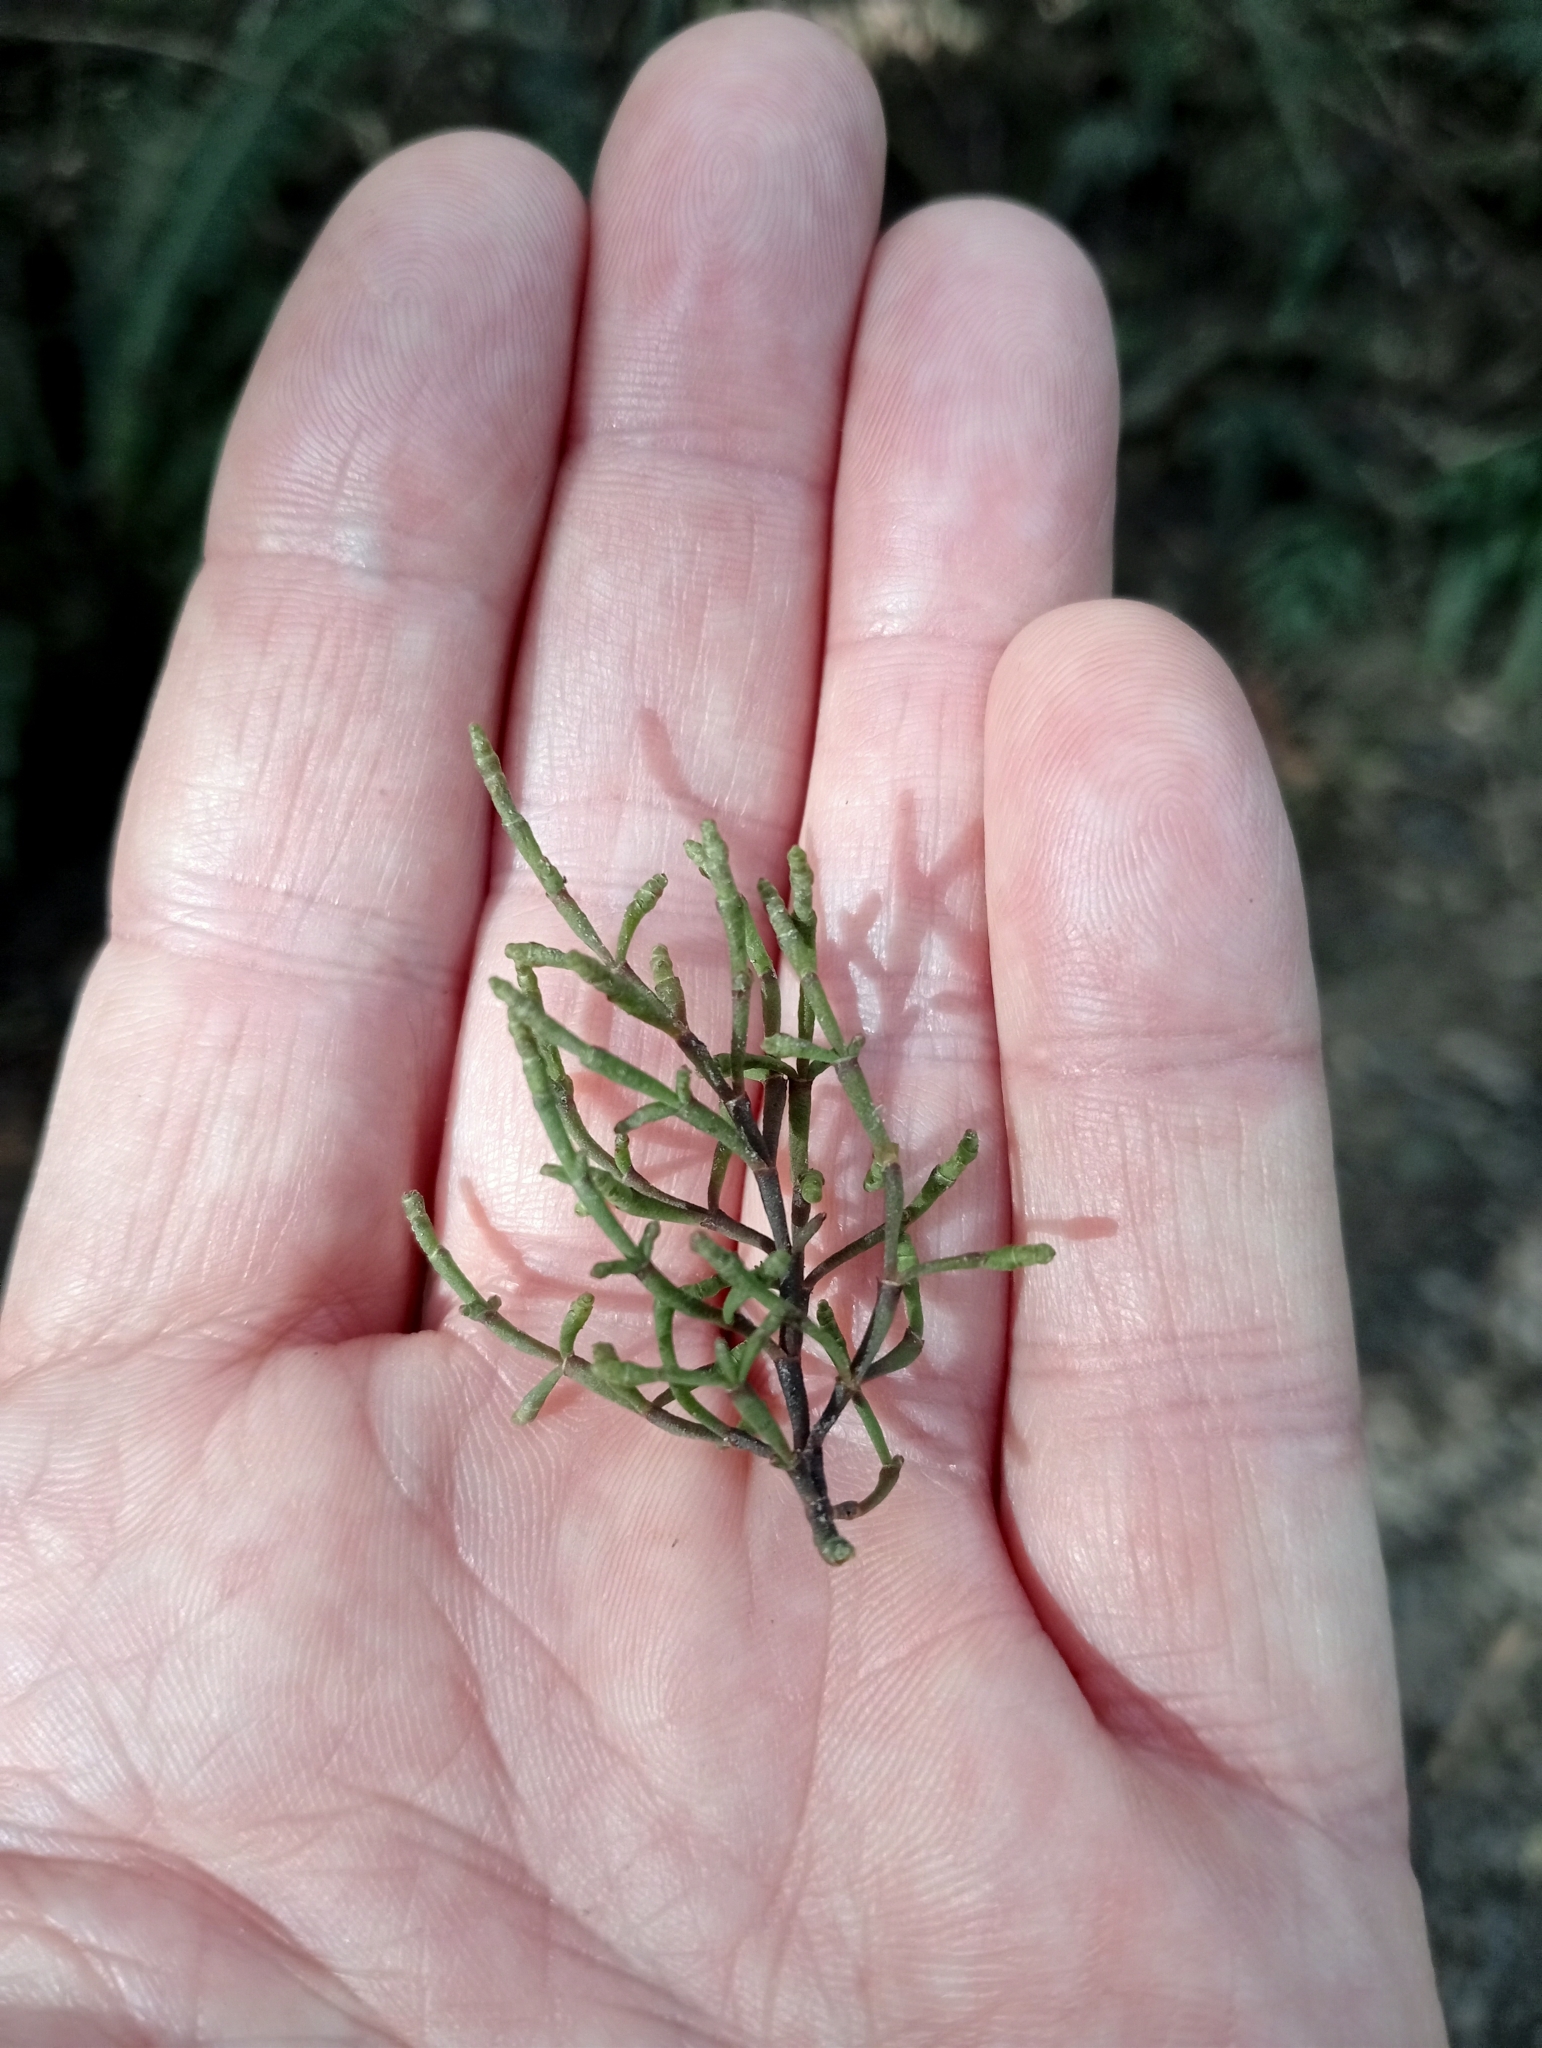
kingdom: Plantae
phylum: Tracheophyta
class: Magnoliopsida
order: Santalales
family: Viscaceae
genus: Korthalsella
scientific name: Korthalsella salicornioides
